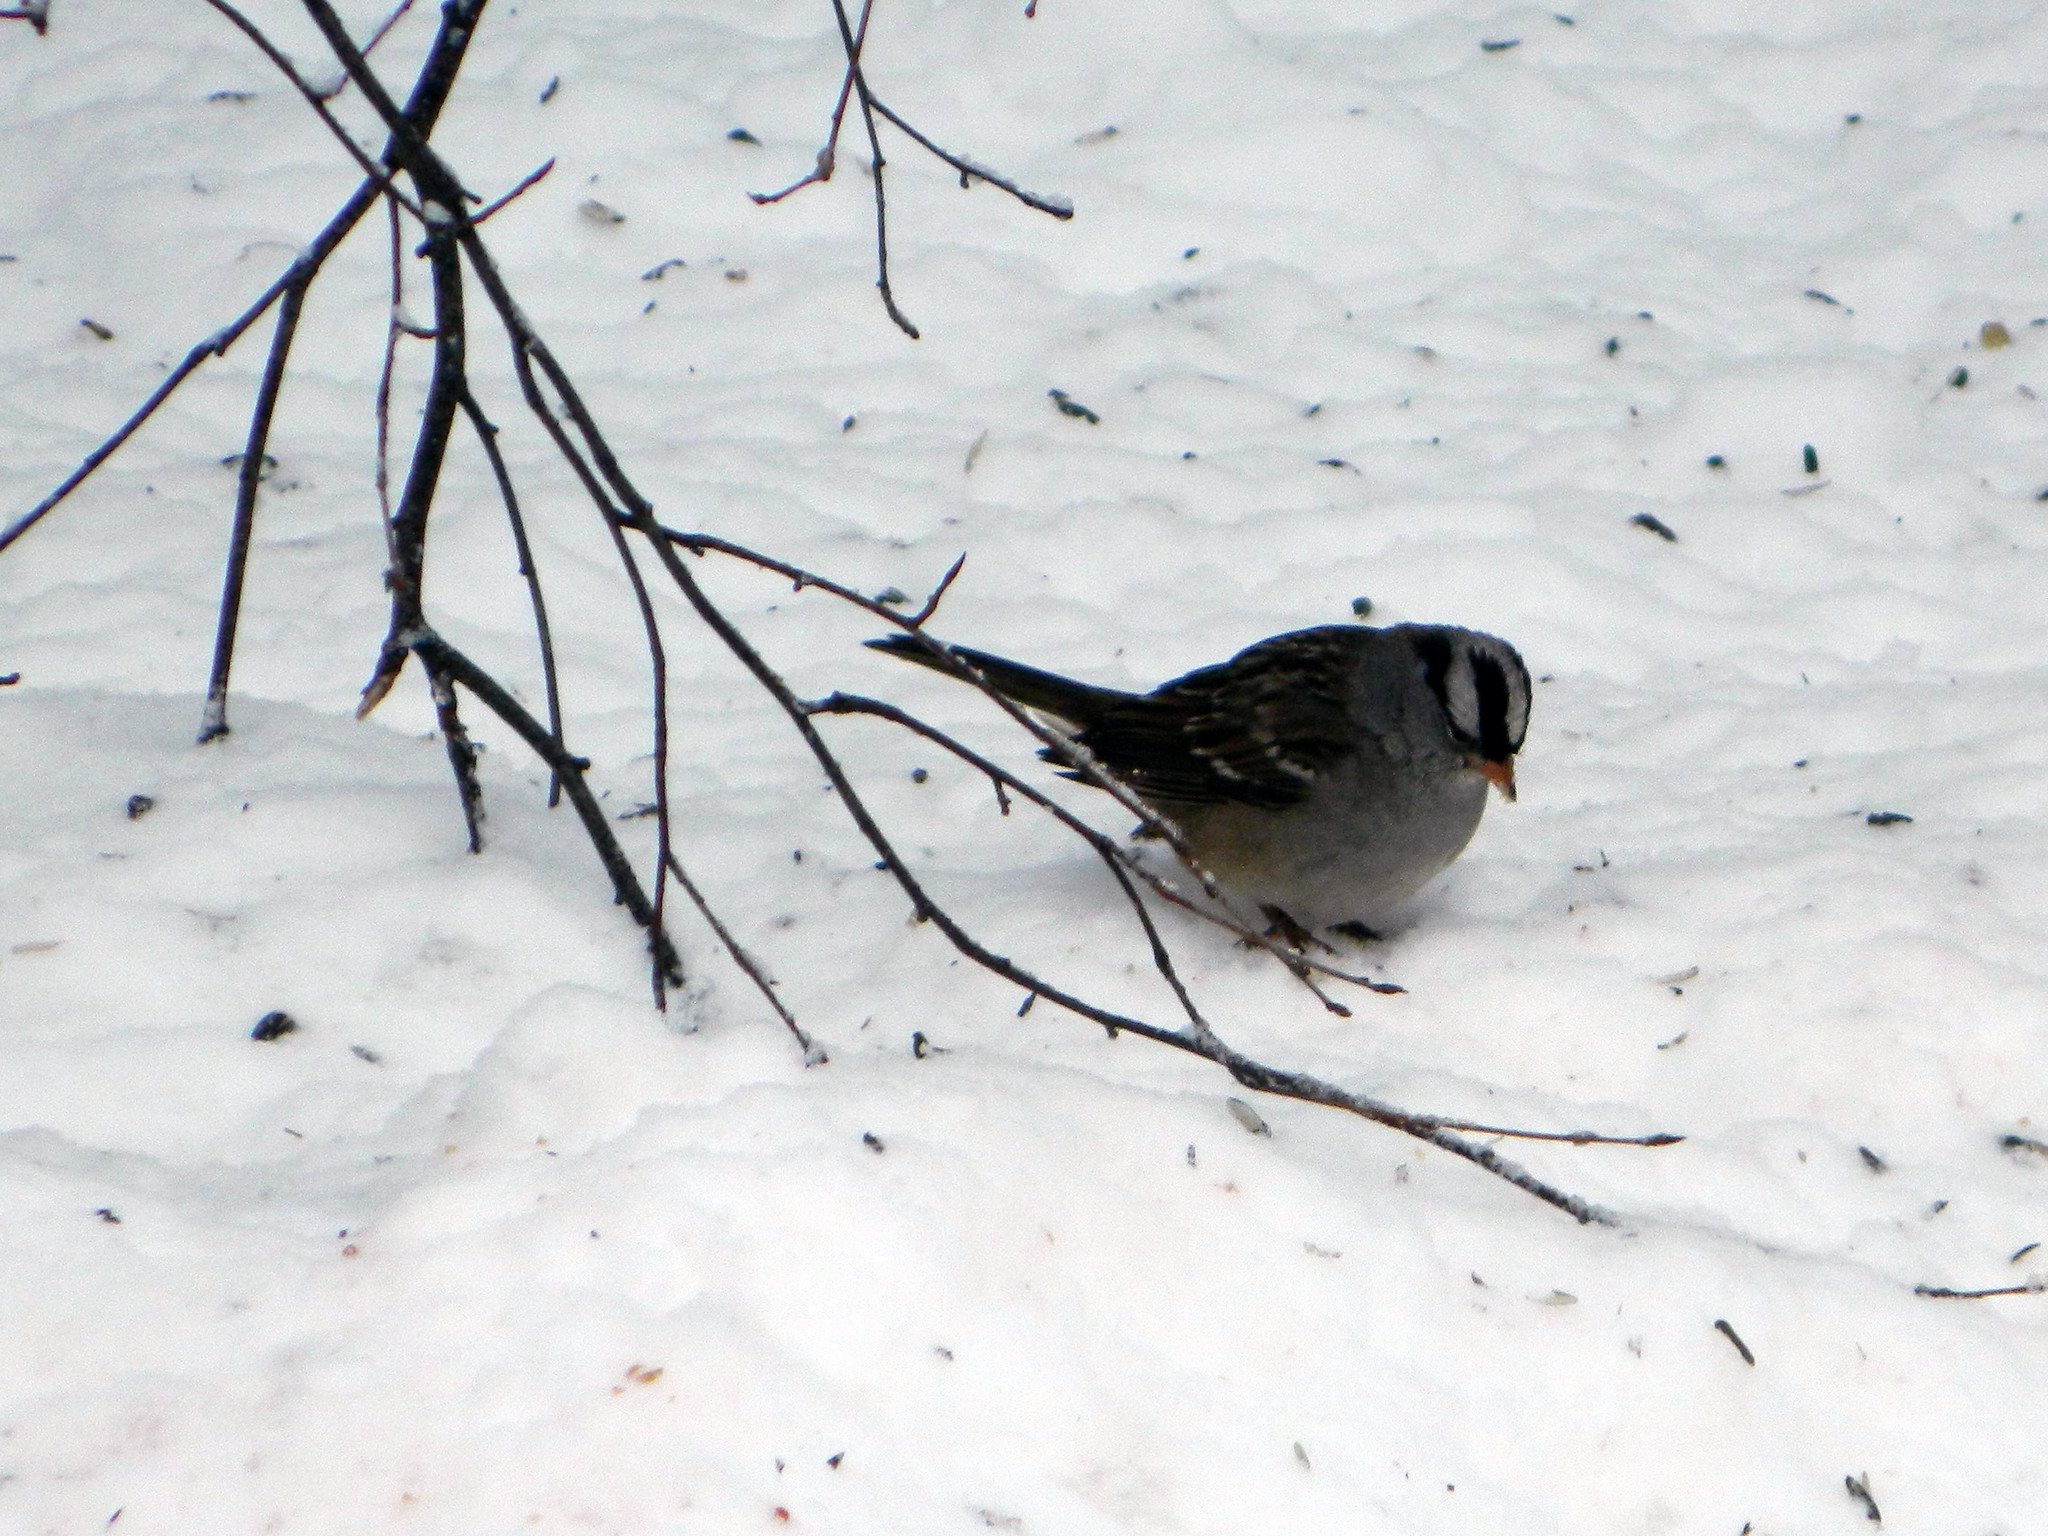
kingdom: Animalia
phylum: Chordata
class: Aves
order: Passeriformes
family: Passerellidae
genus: Zonotrichia
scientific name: Zonotrichia leucophrys
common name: White-crowned sparrow
